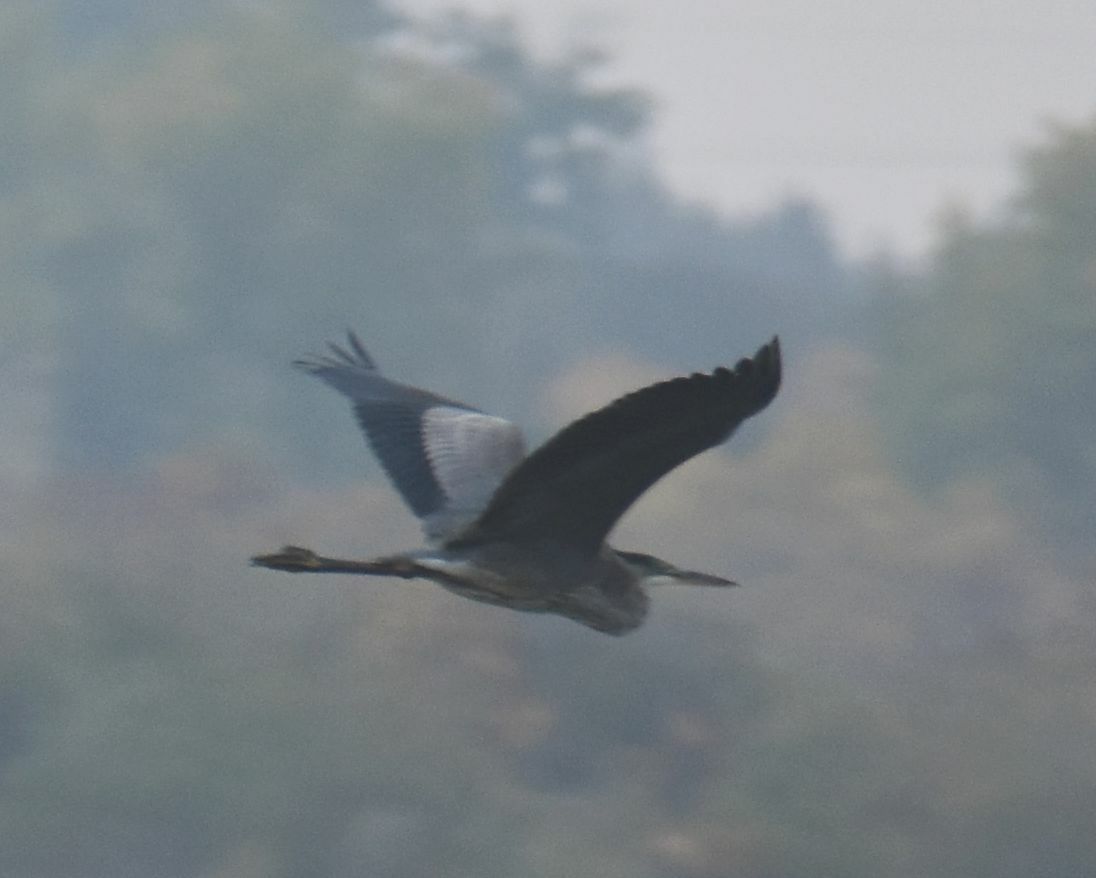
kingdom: Animalia
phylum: Chordata
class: Aves
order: Pelecaniformes
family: Ardeidae
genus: Ardea
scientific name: Ardea herodias
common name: Great blue heron
